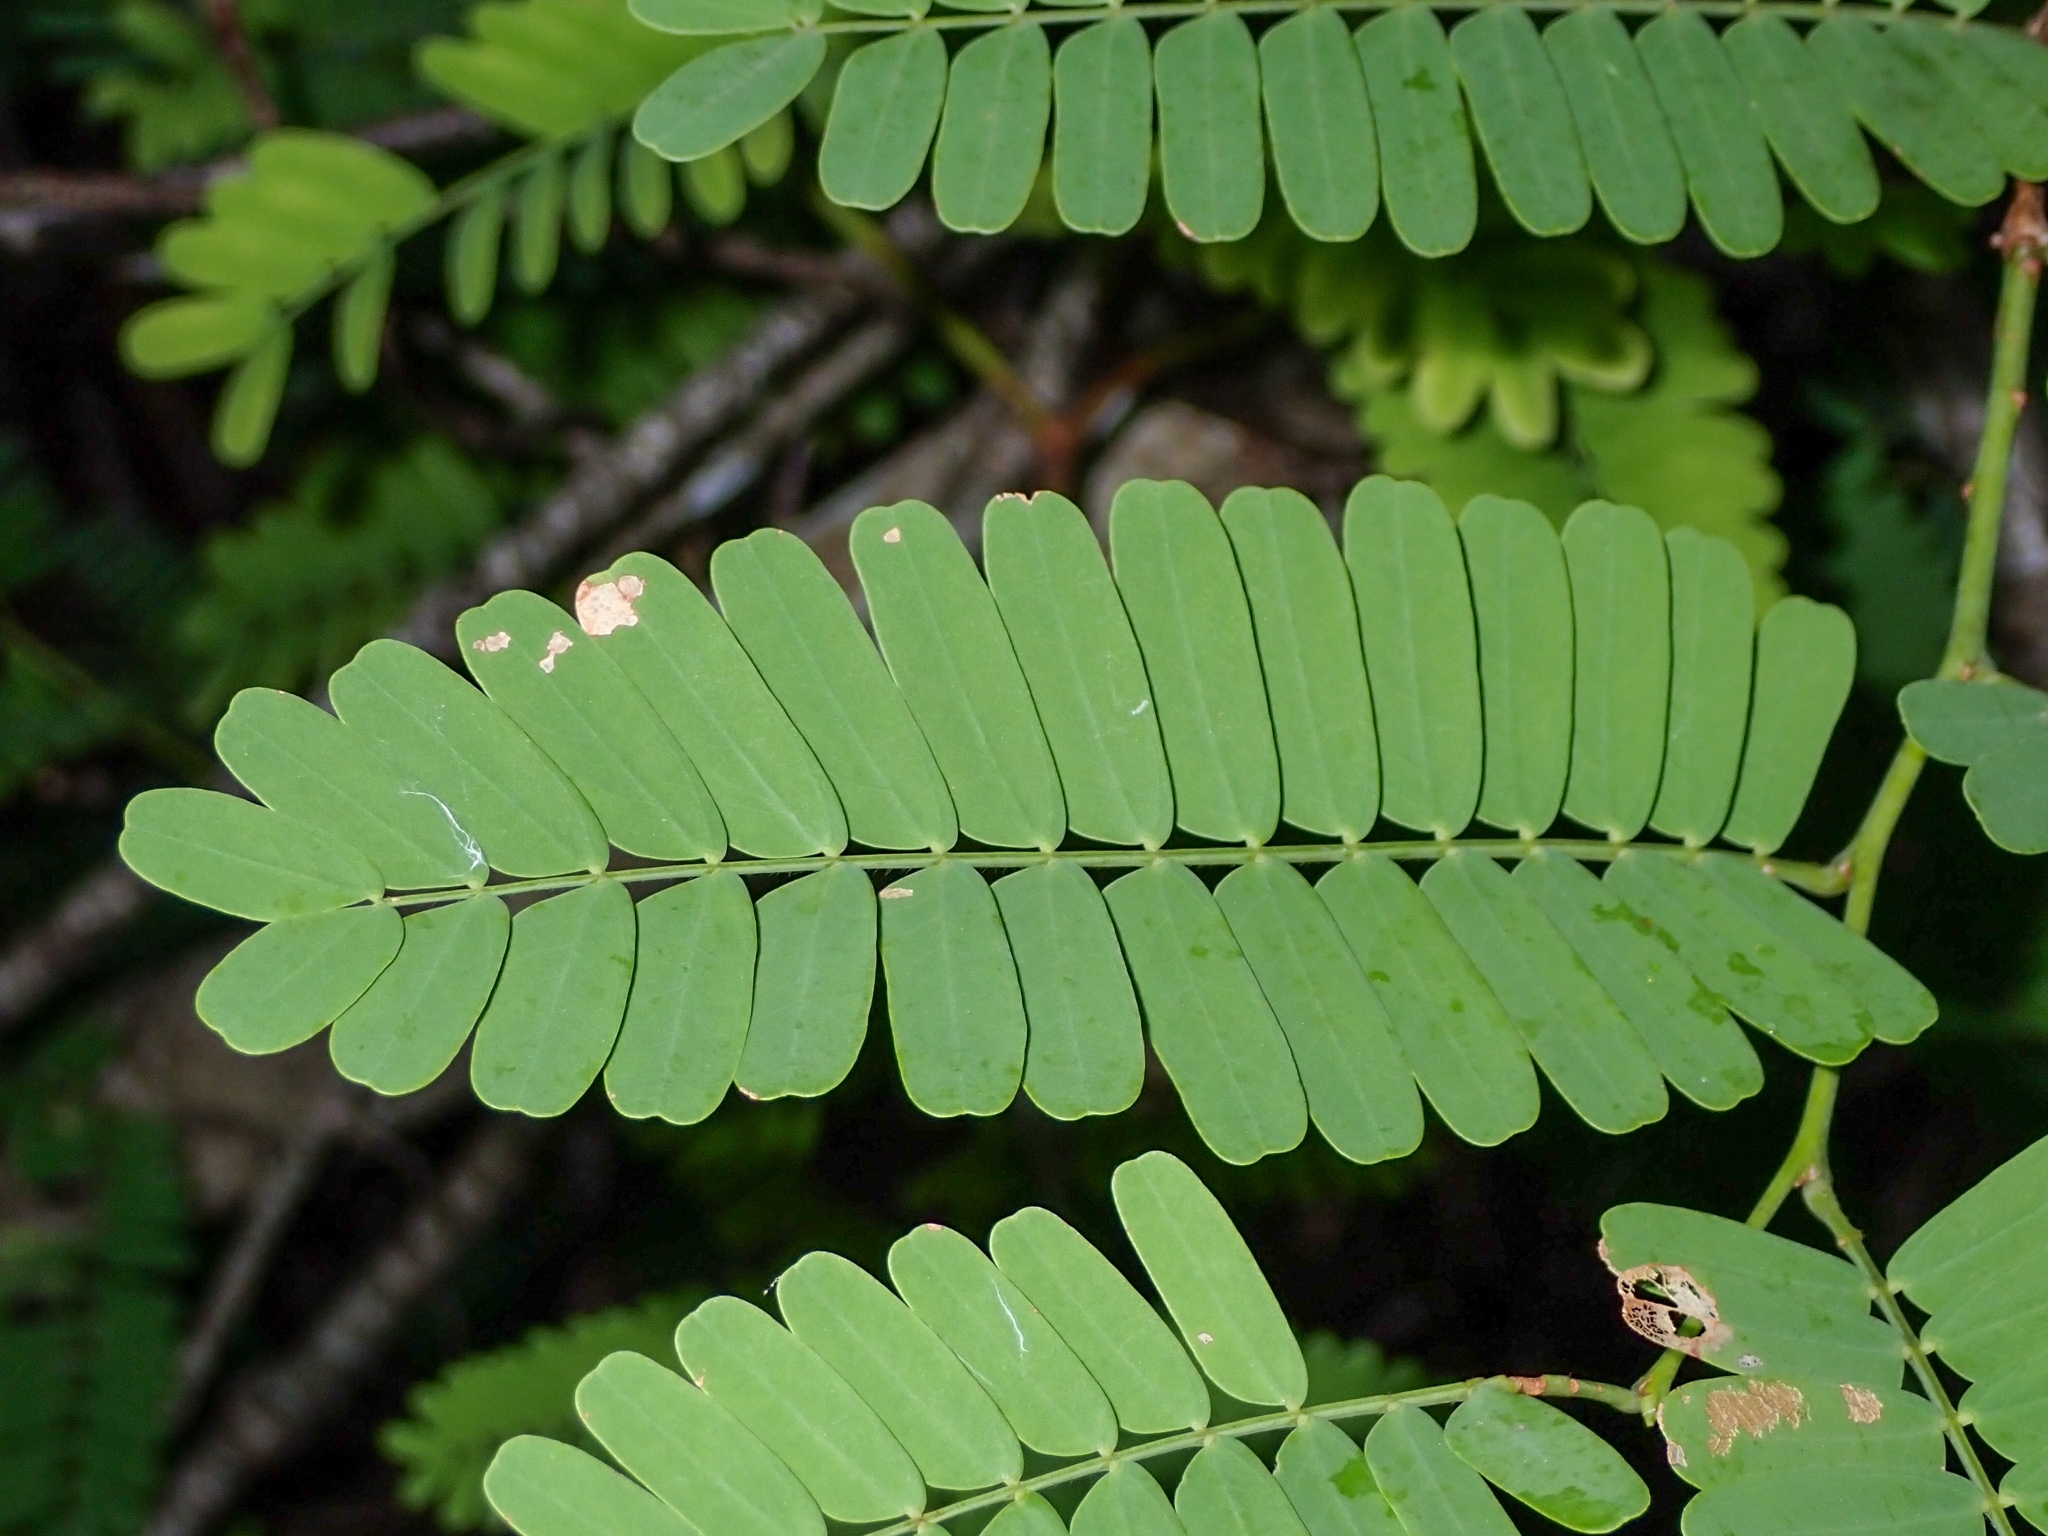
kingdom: Plantae
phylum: Tracheophyta
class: Magnoliopsida
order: Fabales
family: Fabaceae
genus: Tamarindus
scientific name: Tamarindus indica
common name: Tamarind
